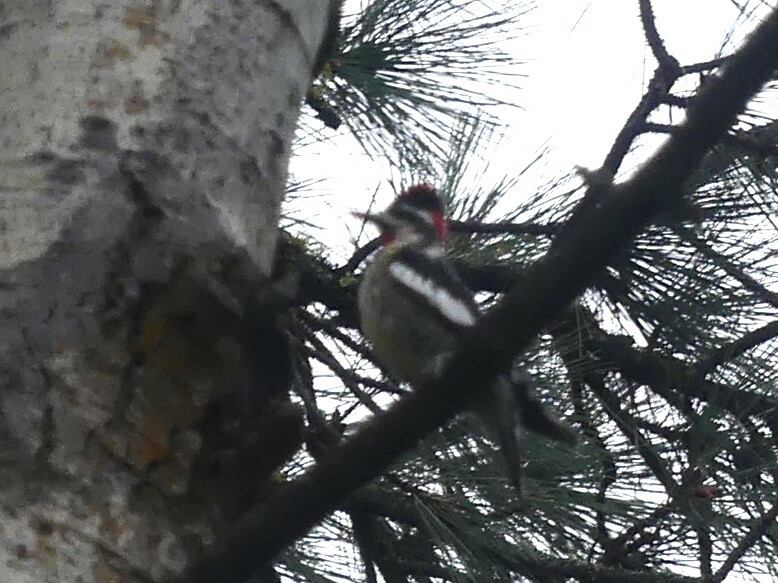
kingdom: Animalia
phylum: Chordata
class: Aves
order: Piciformes
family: Picidae
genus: Sphyrapicus
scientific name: Sphyrapicus nuchalis
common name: Red-naped sapsucker
